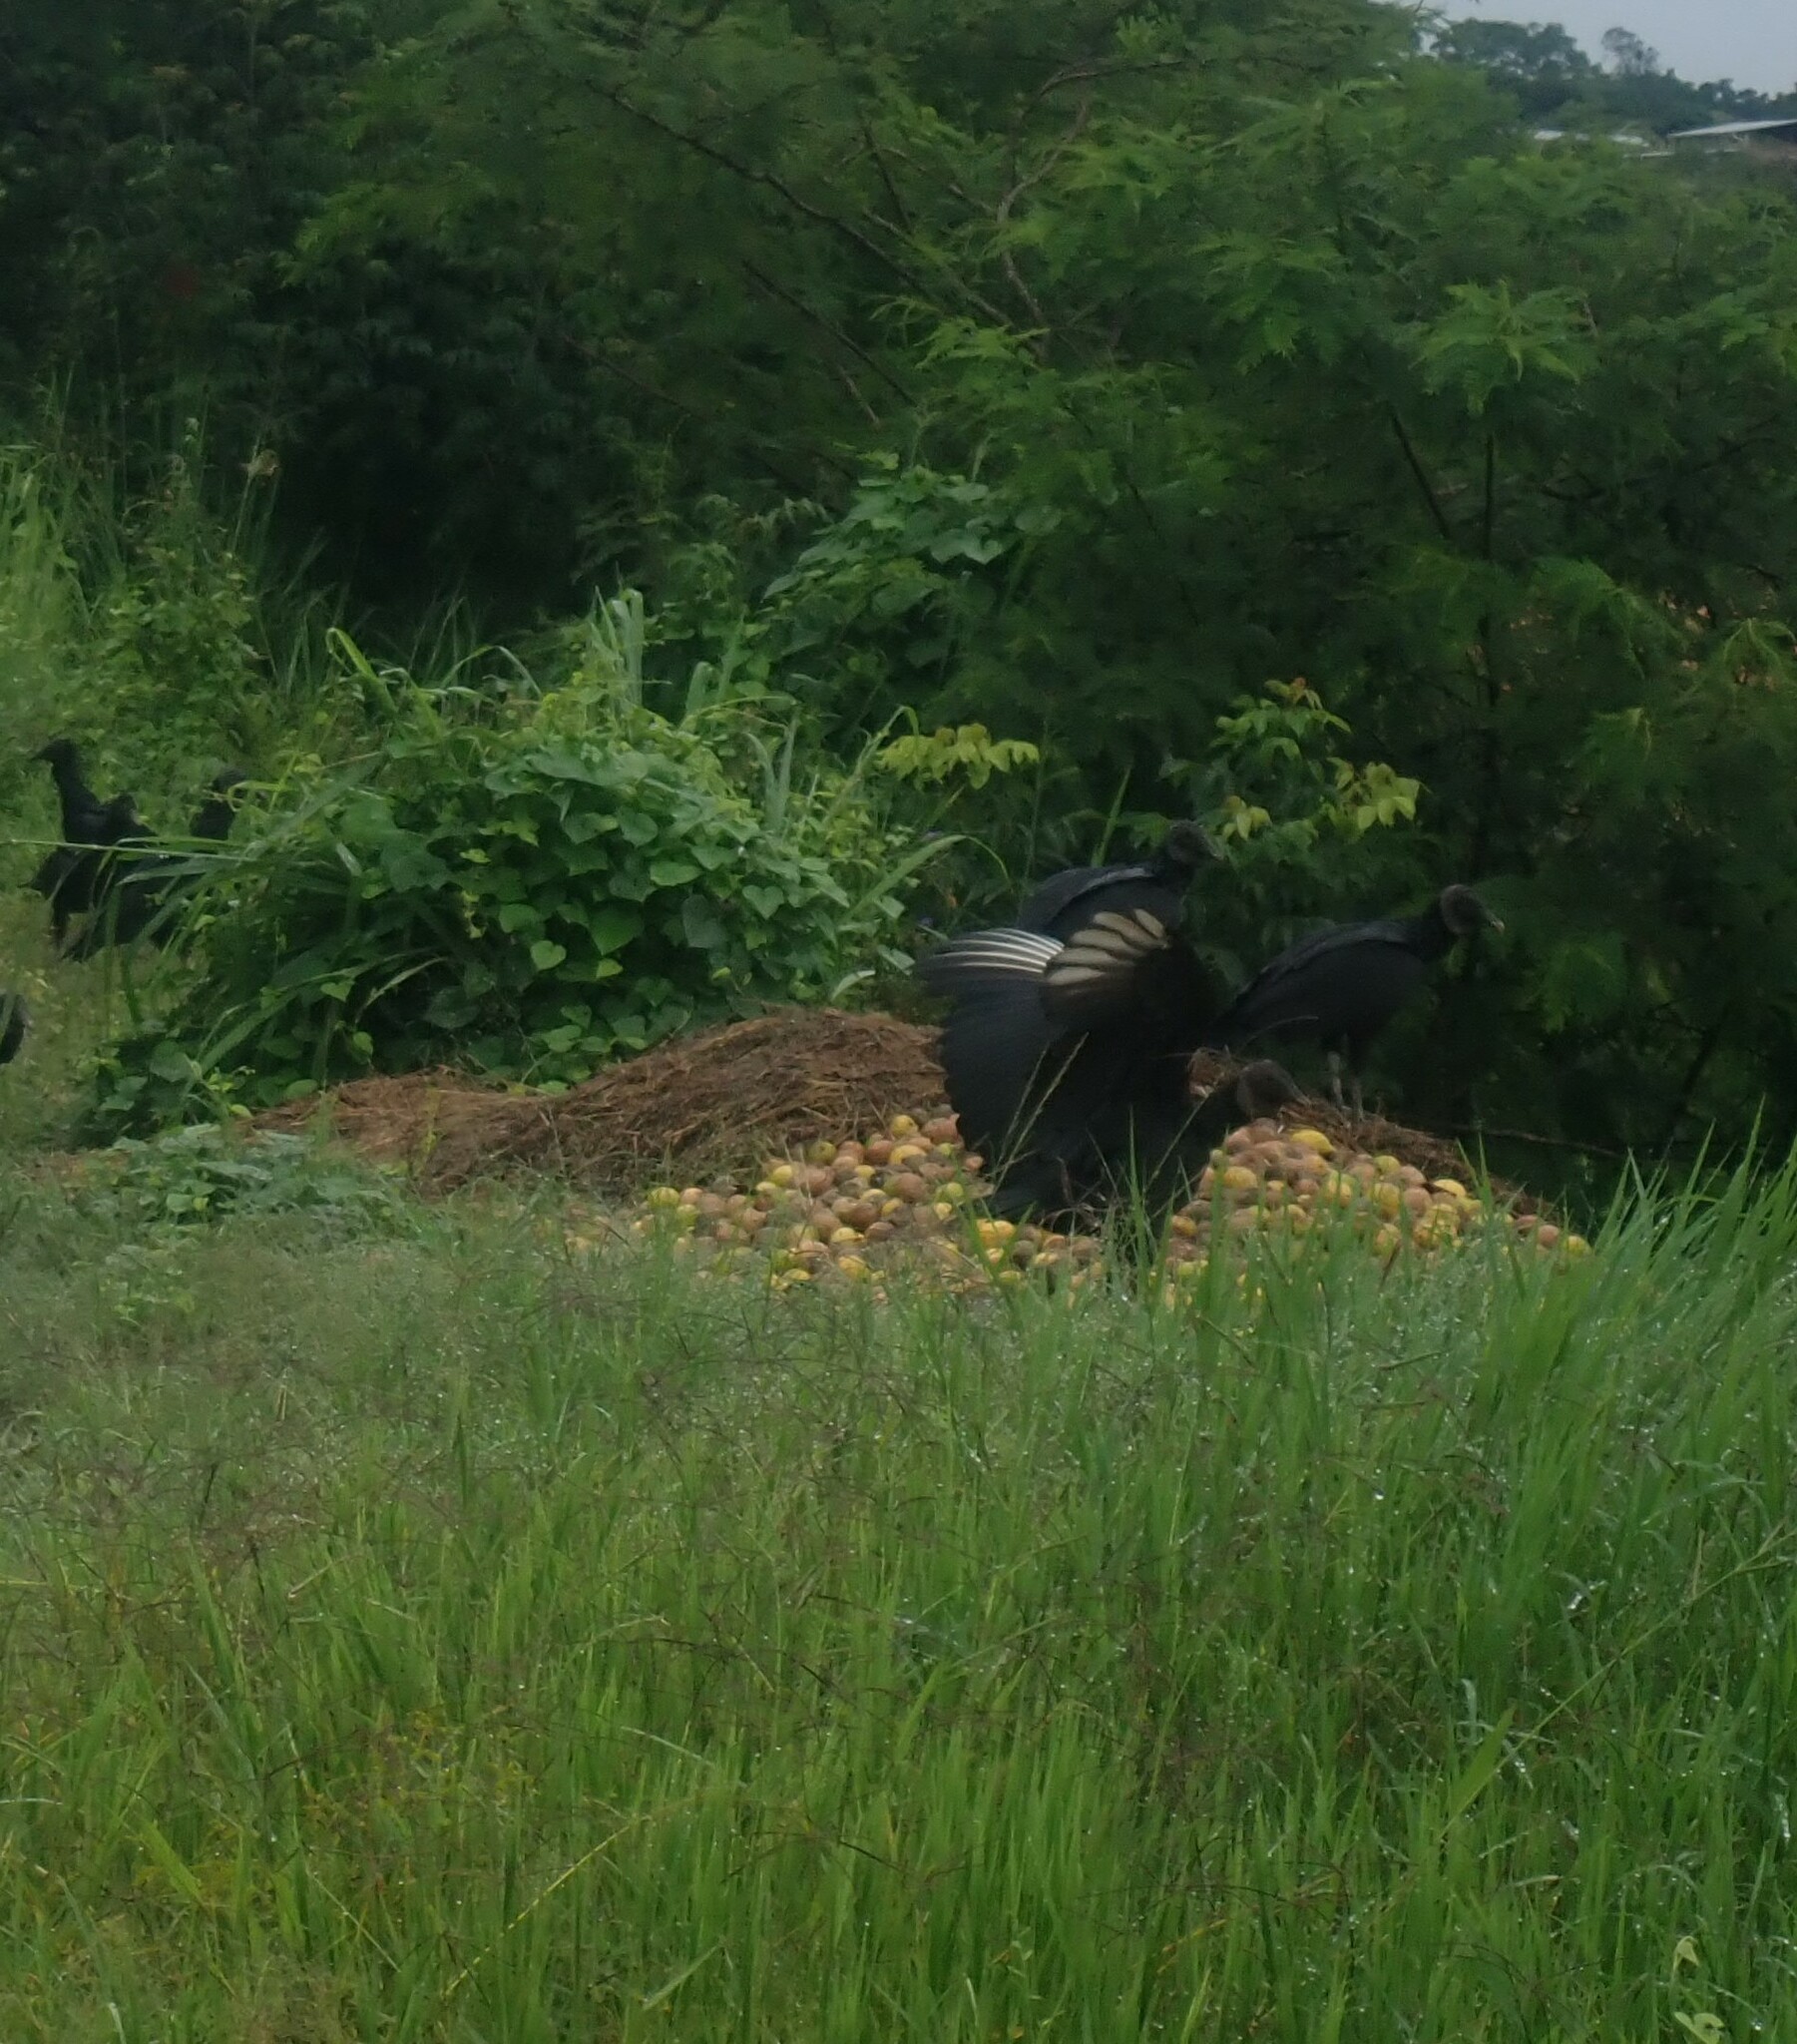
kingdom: Animalia
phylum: Chordata
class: Aves
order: Accipitriformes
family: Cathartidae
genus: Coragyps
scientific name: Coragyps atratus
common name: Black vulture
